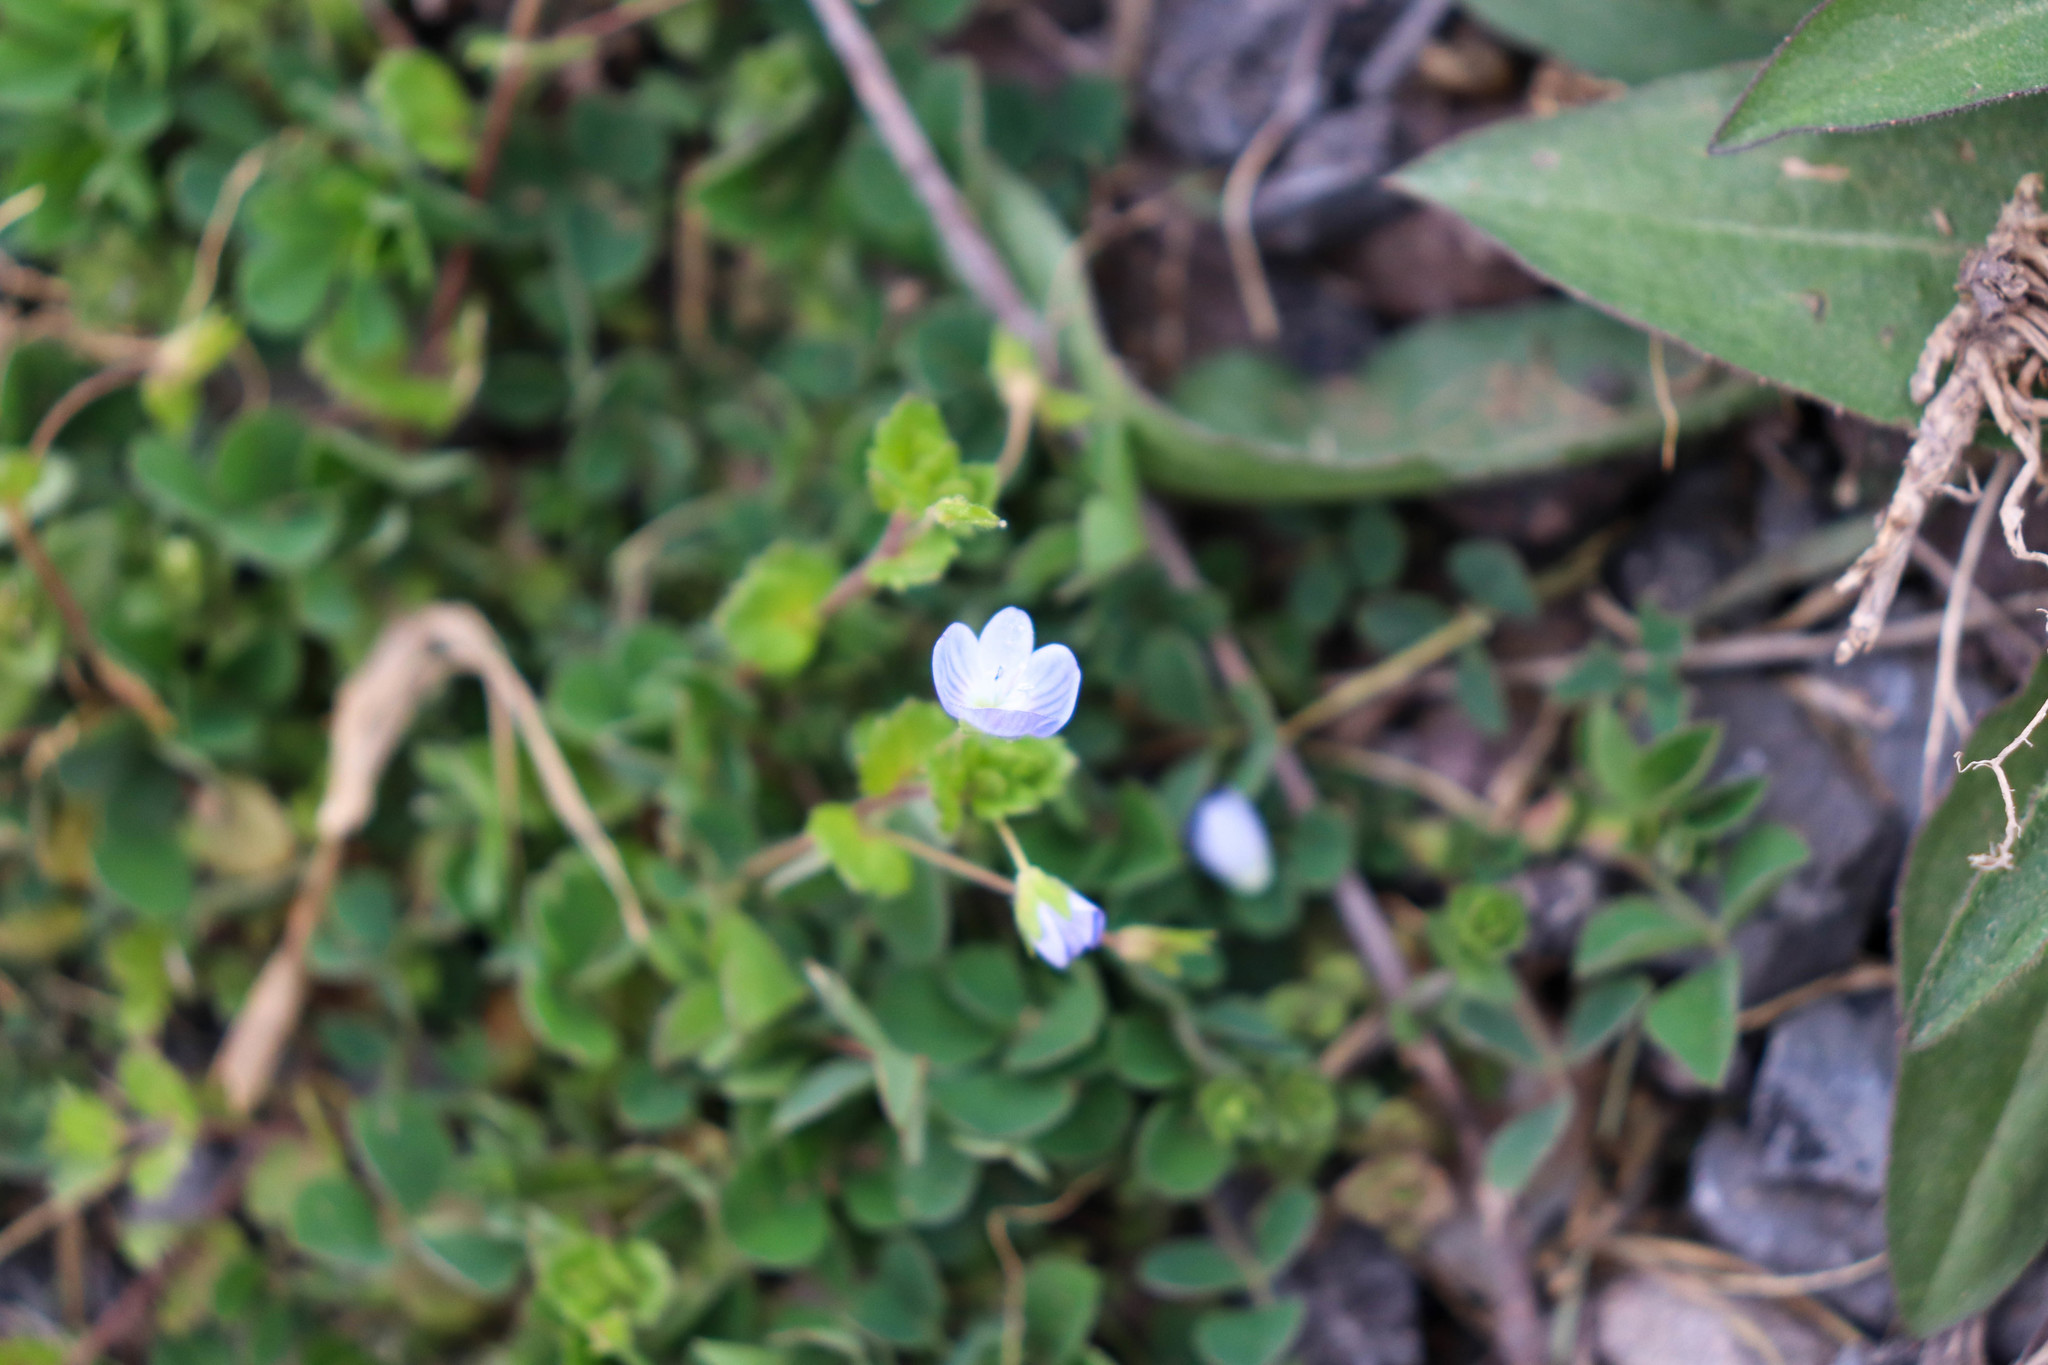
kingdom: Plantae
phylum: Tracheophyta
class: Magnoliopsida
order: Lamiales
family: Plantaginaceae
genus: Veronica
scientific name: Veronica persica
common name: Common field-speedwell
